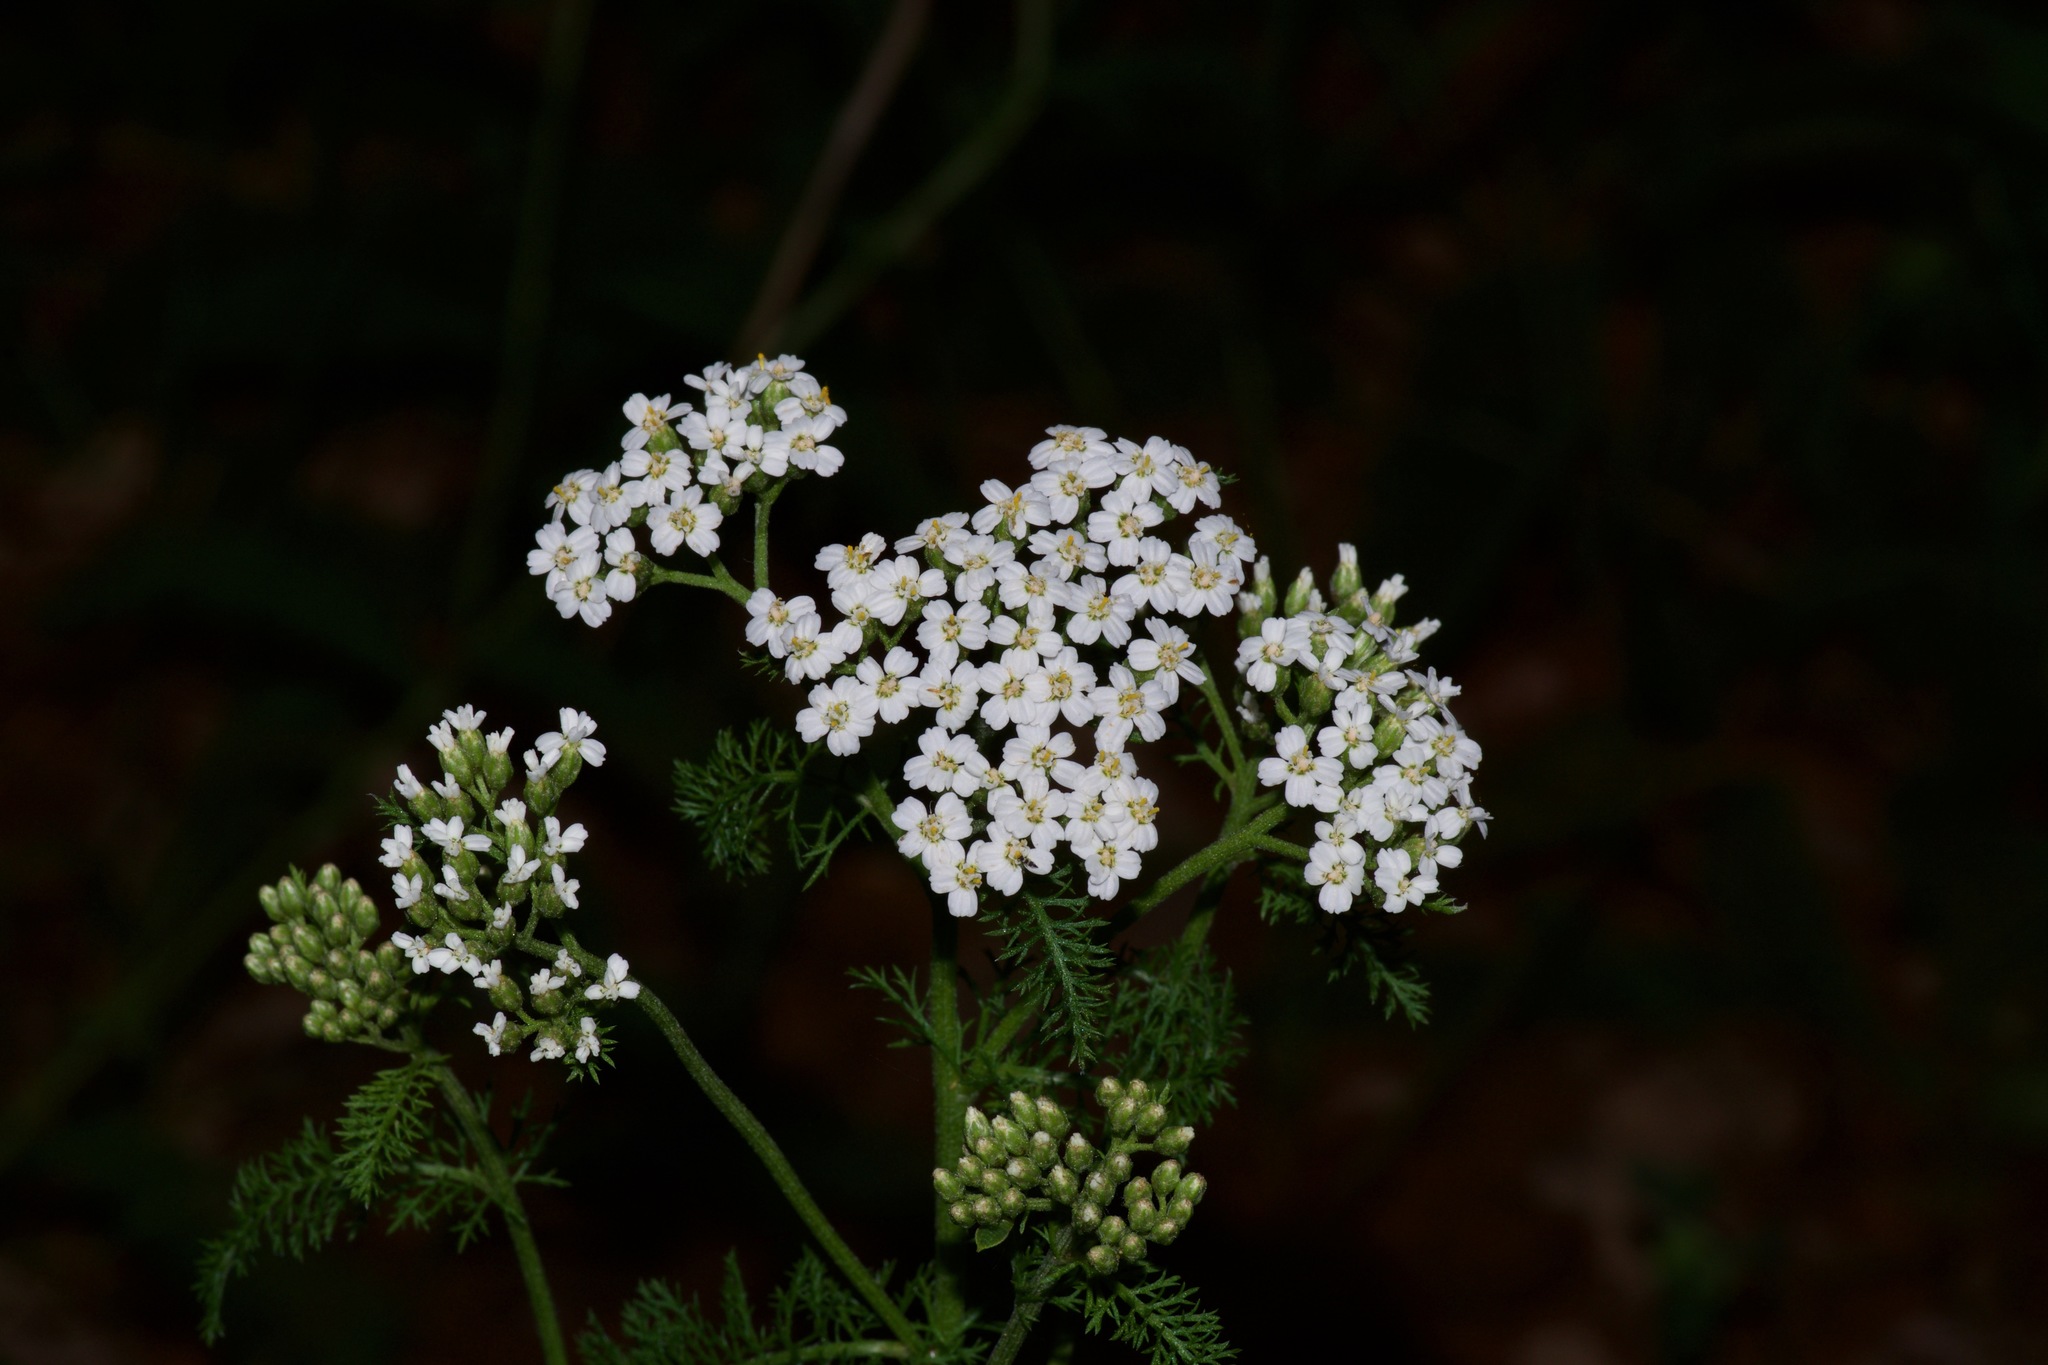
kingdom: Plantae
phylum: Tracheophyta
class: Magnoliopsida
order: Asterales
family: Asteraceae
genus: Achillea
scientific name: Achillea millefolium
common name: Yarrow
